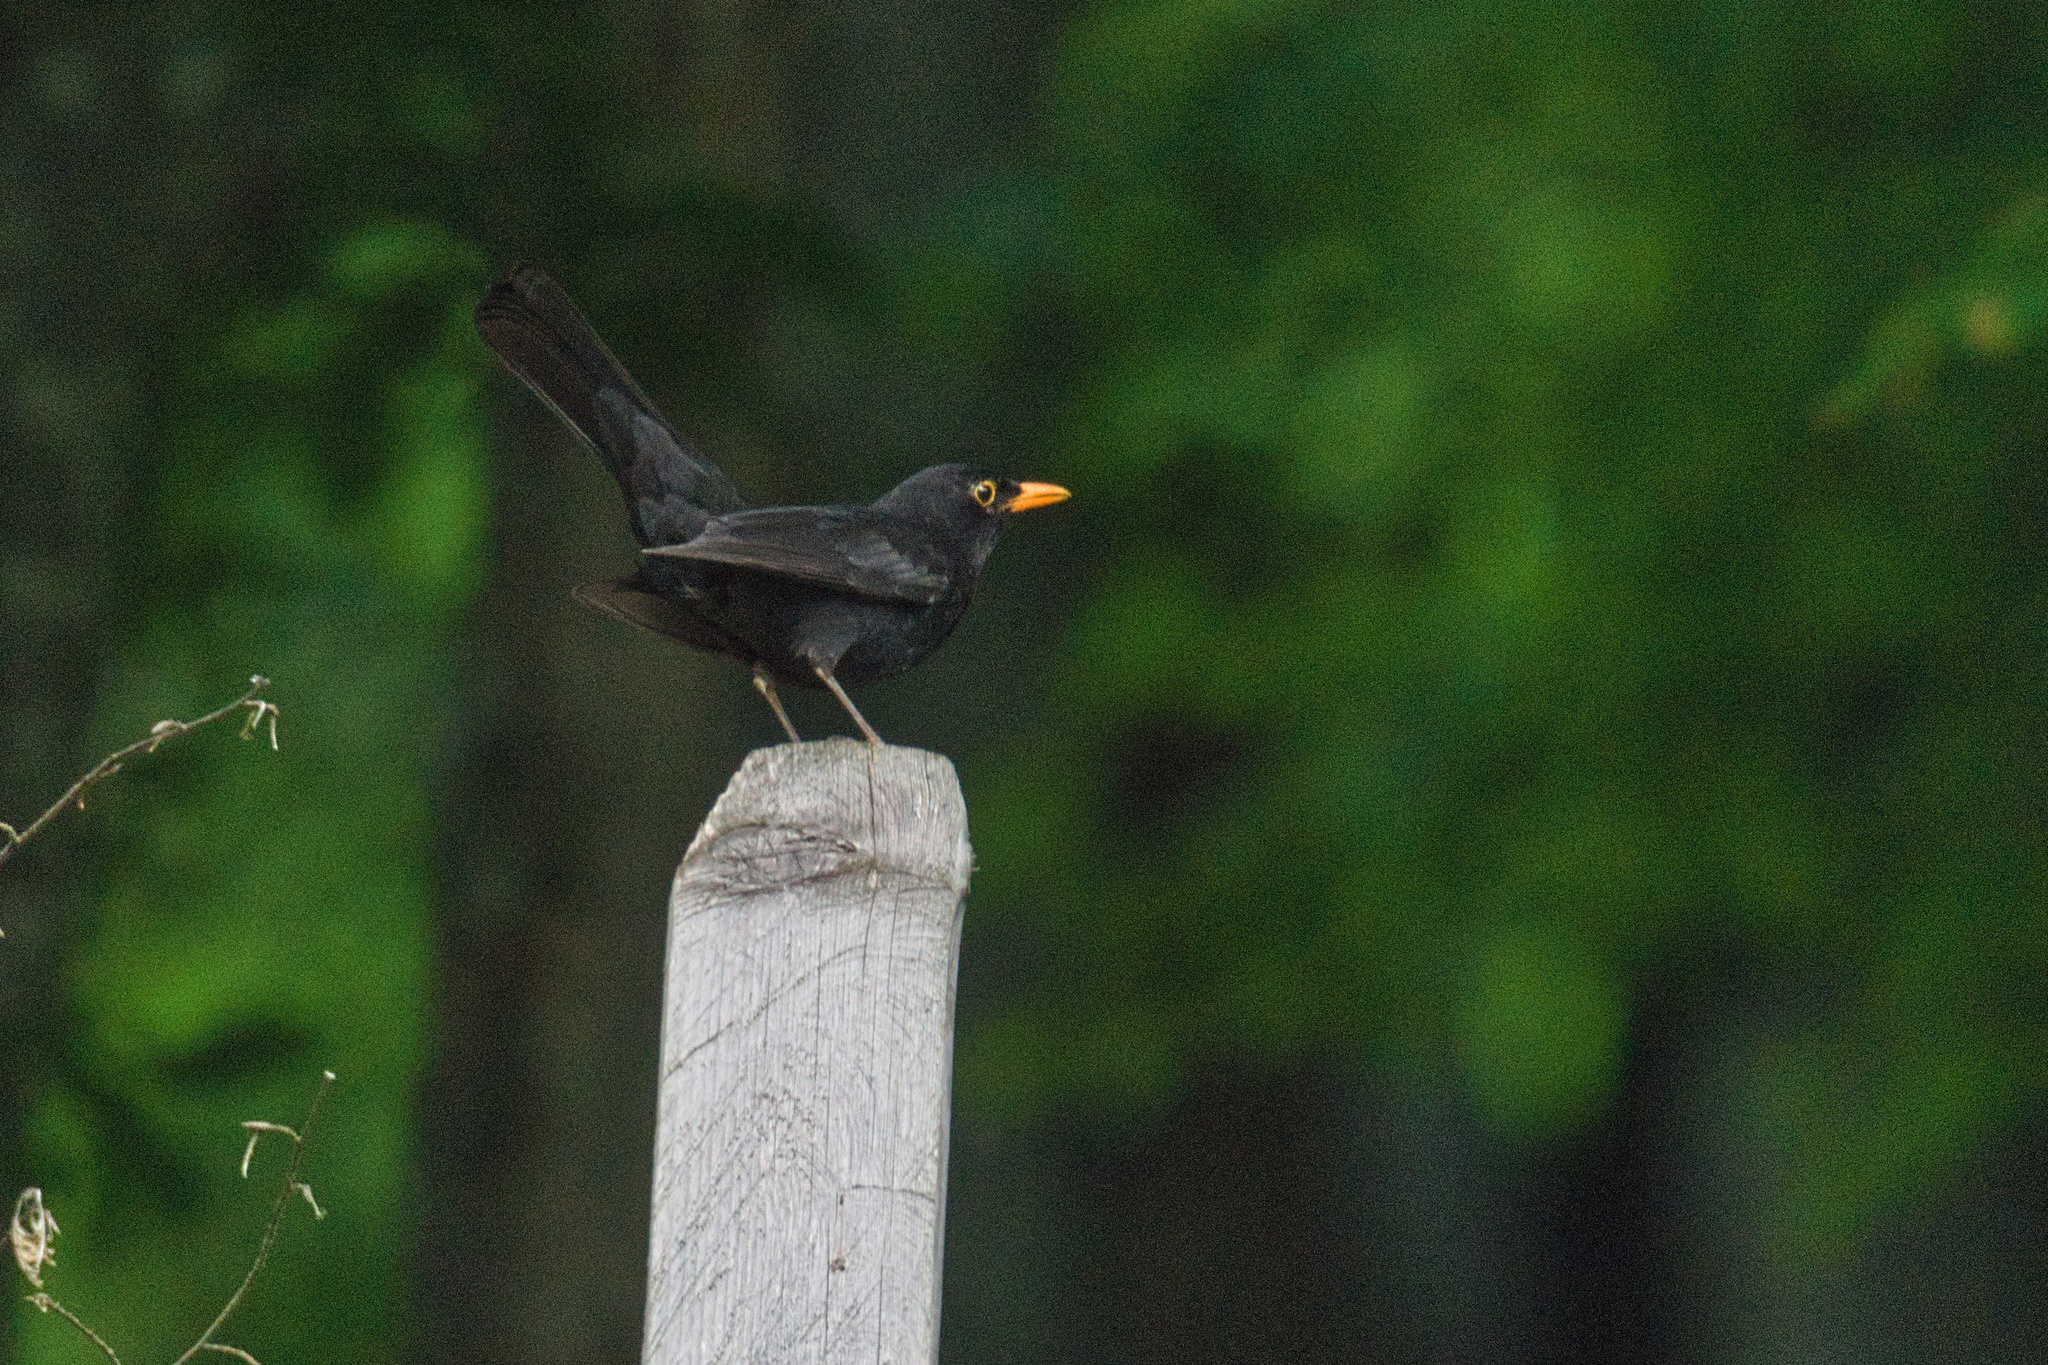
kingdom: Animalia
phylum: Chordata
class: Aves
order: Passeriformes
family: Turdidae
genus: Turdus
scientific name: Turdus merula
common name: Common blackbird
